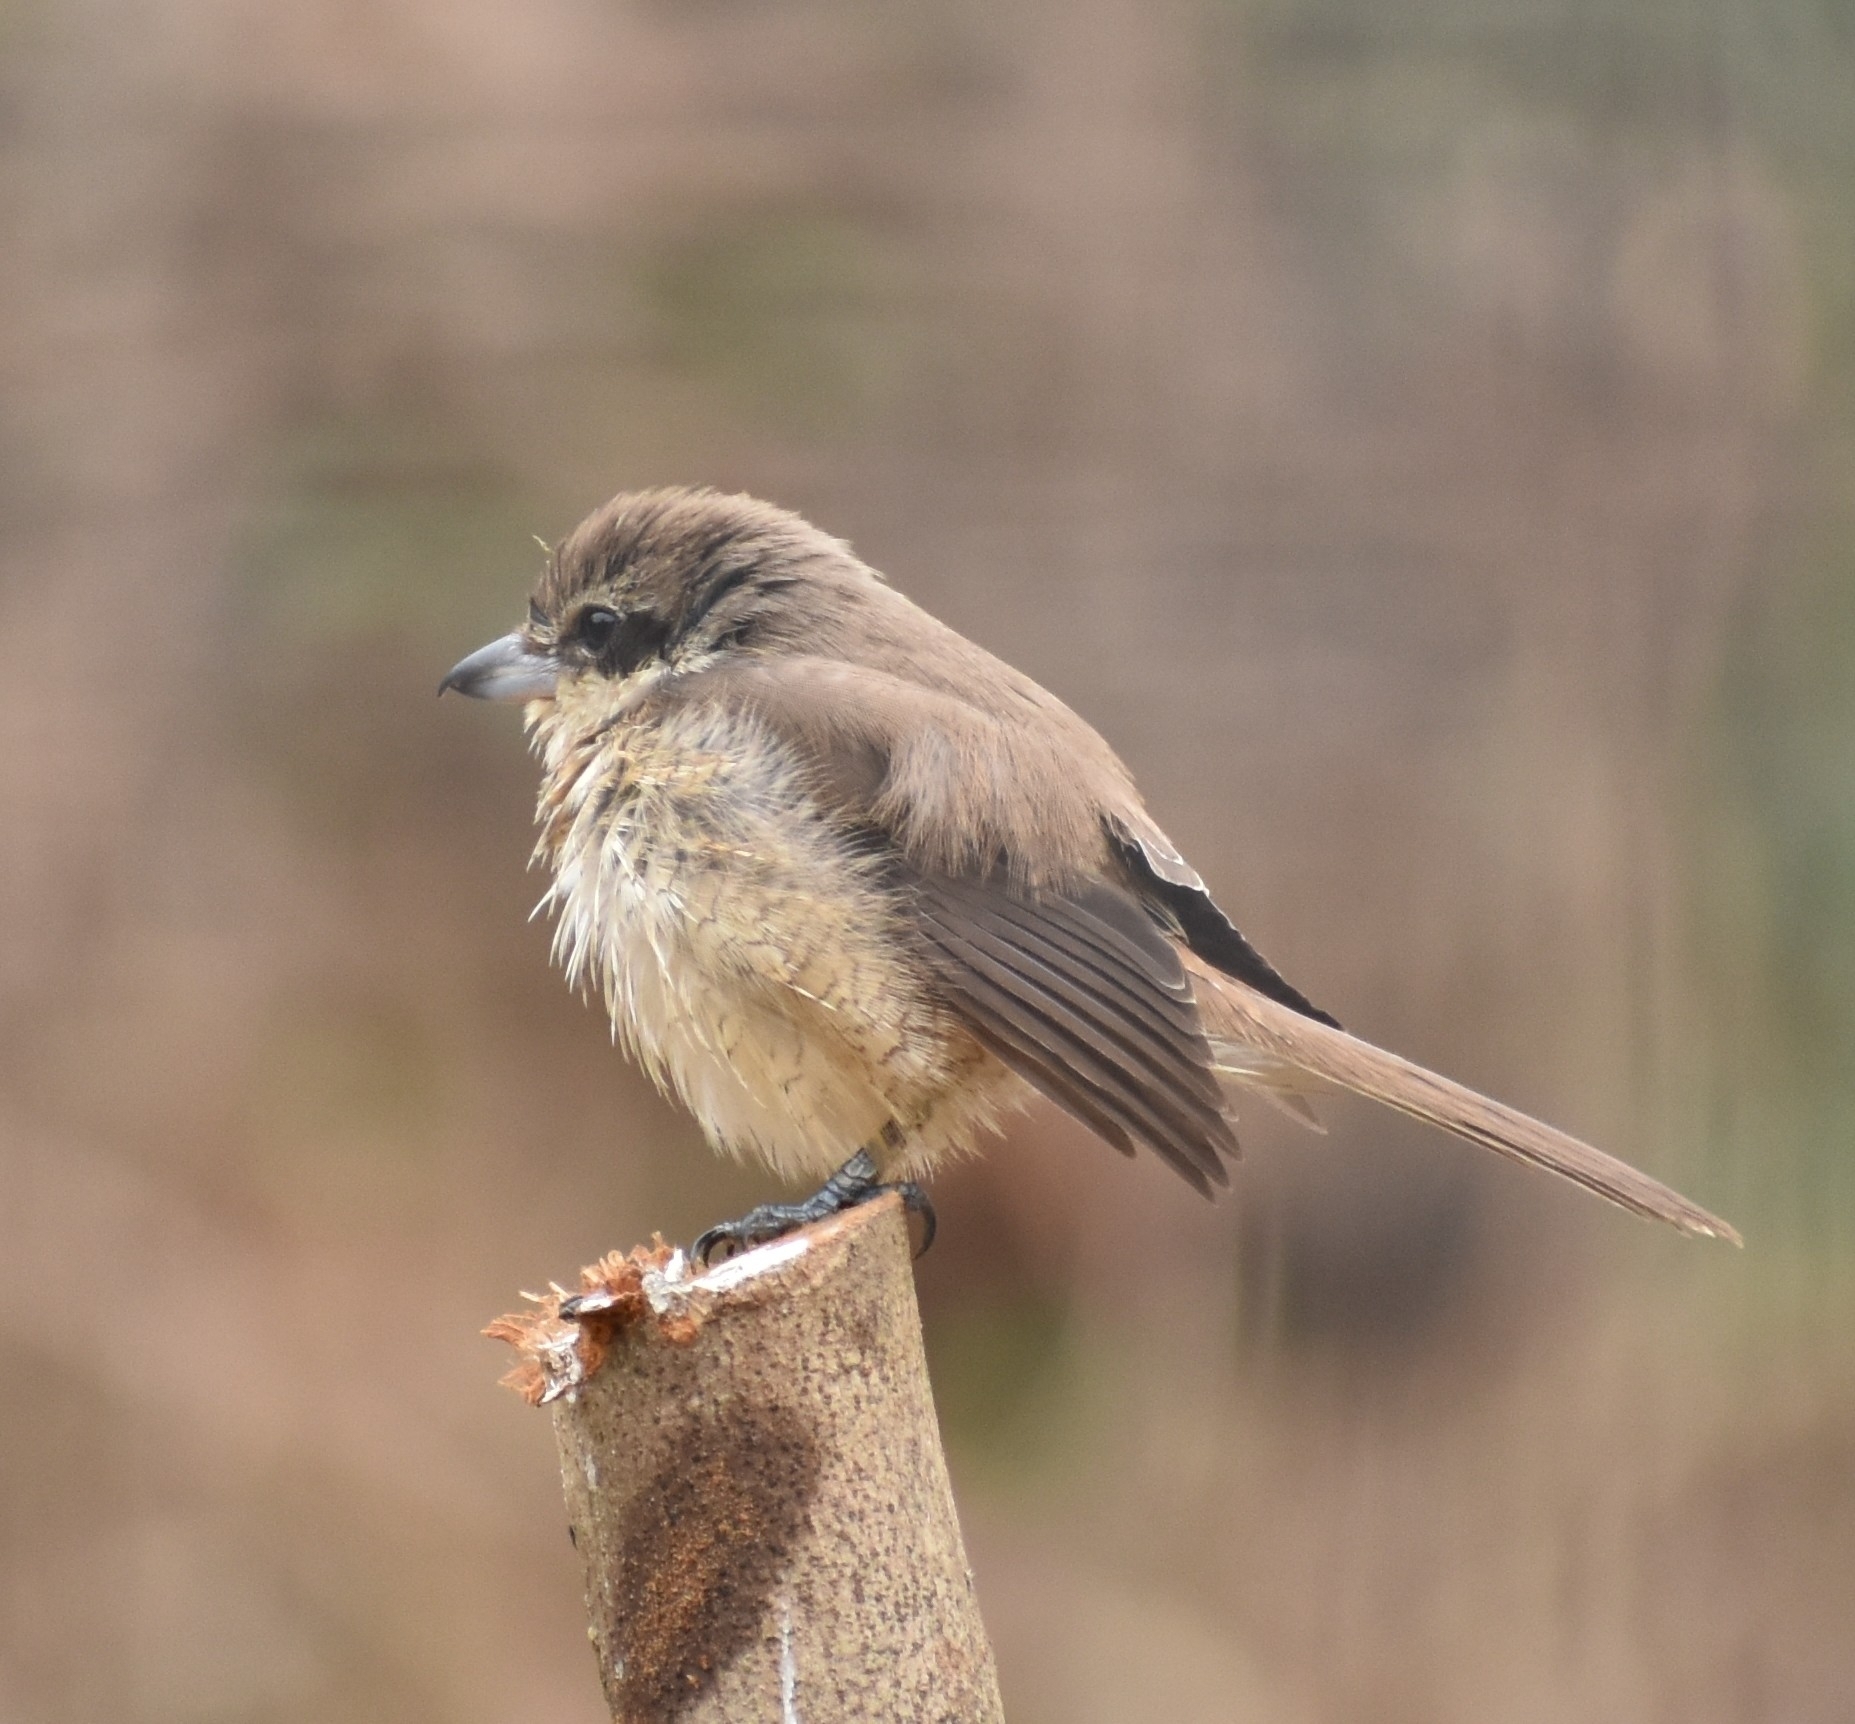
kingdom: Animalia
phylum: Chordata
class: Aves
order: Passeriformes
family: Laniidae
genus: Lanius
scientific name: Lanius cristatus
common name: Brown shrike
